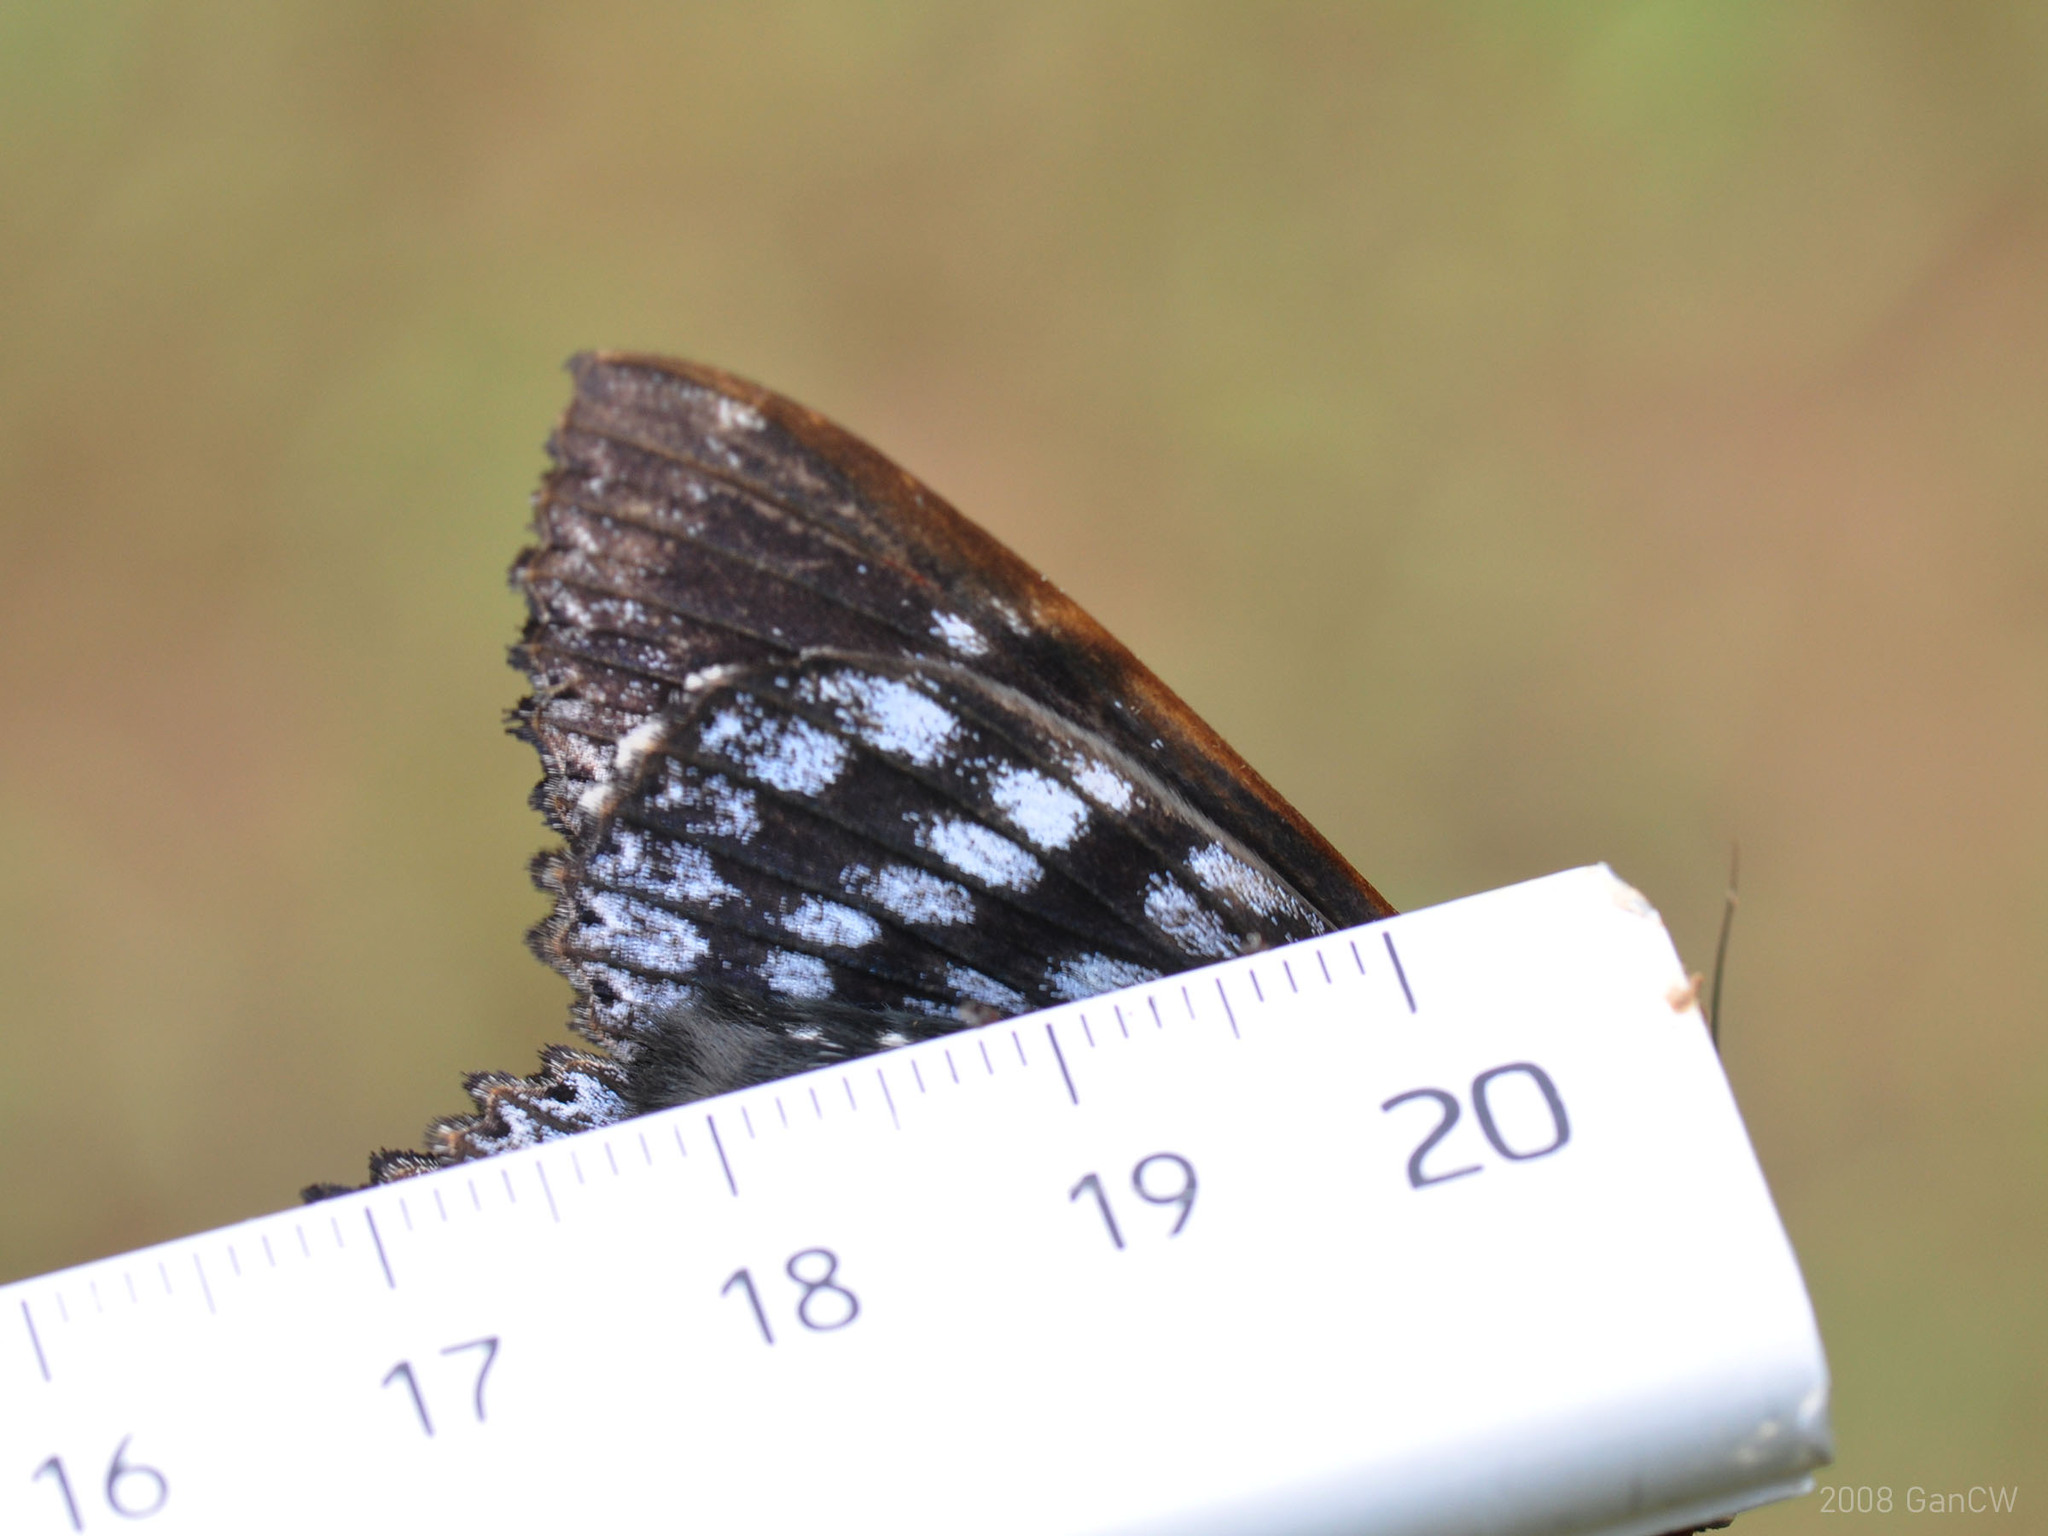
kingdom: Animalia
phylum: Arthropoda
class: Insecta
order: Lepidoptera
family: Erebidae
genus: Arcte
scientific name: Arcte modesta
